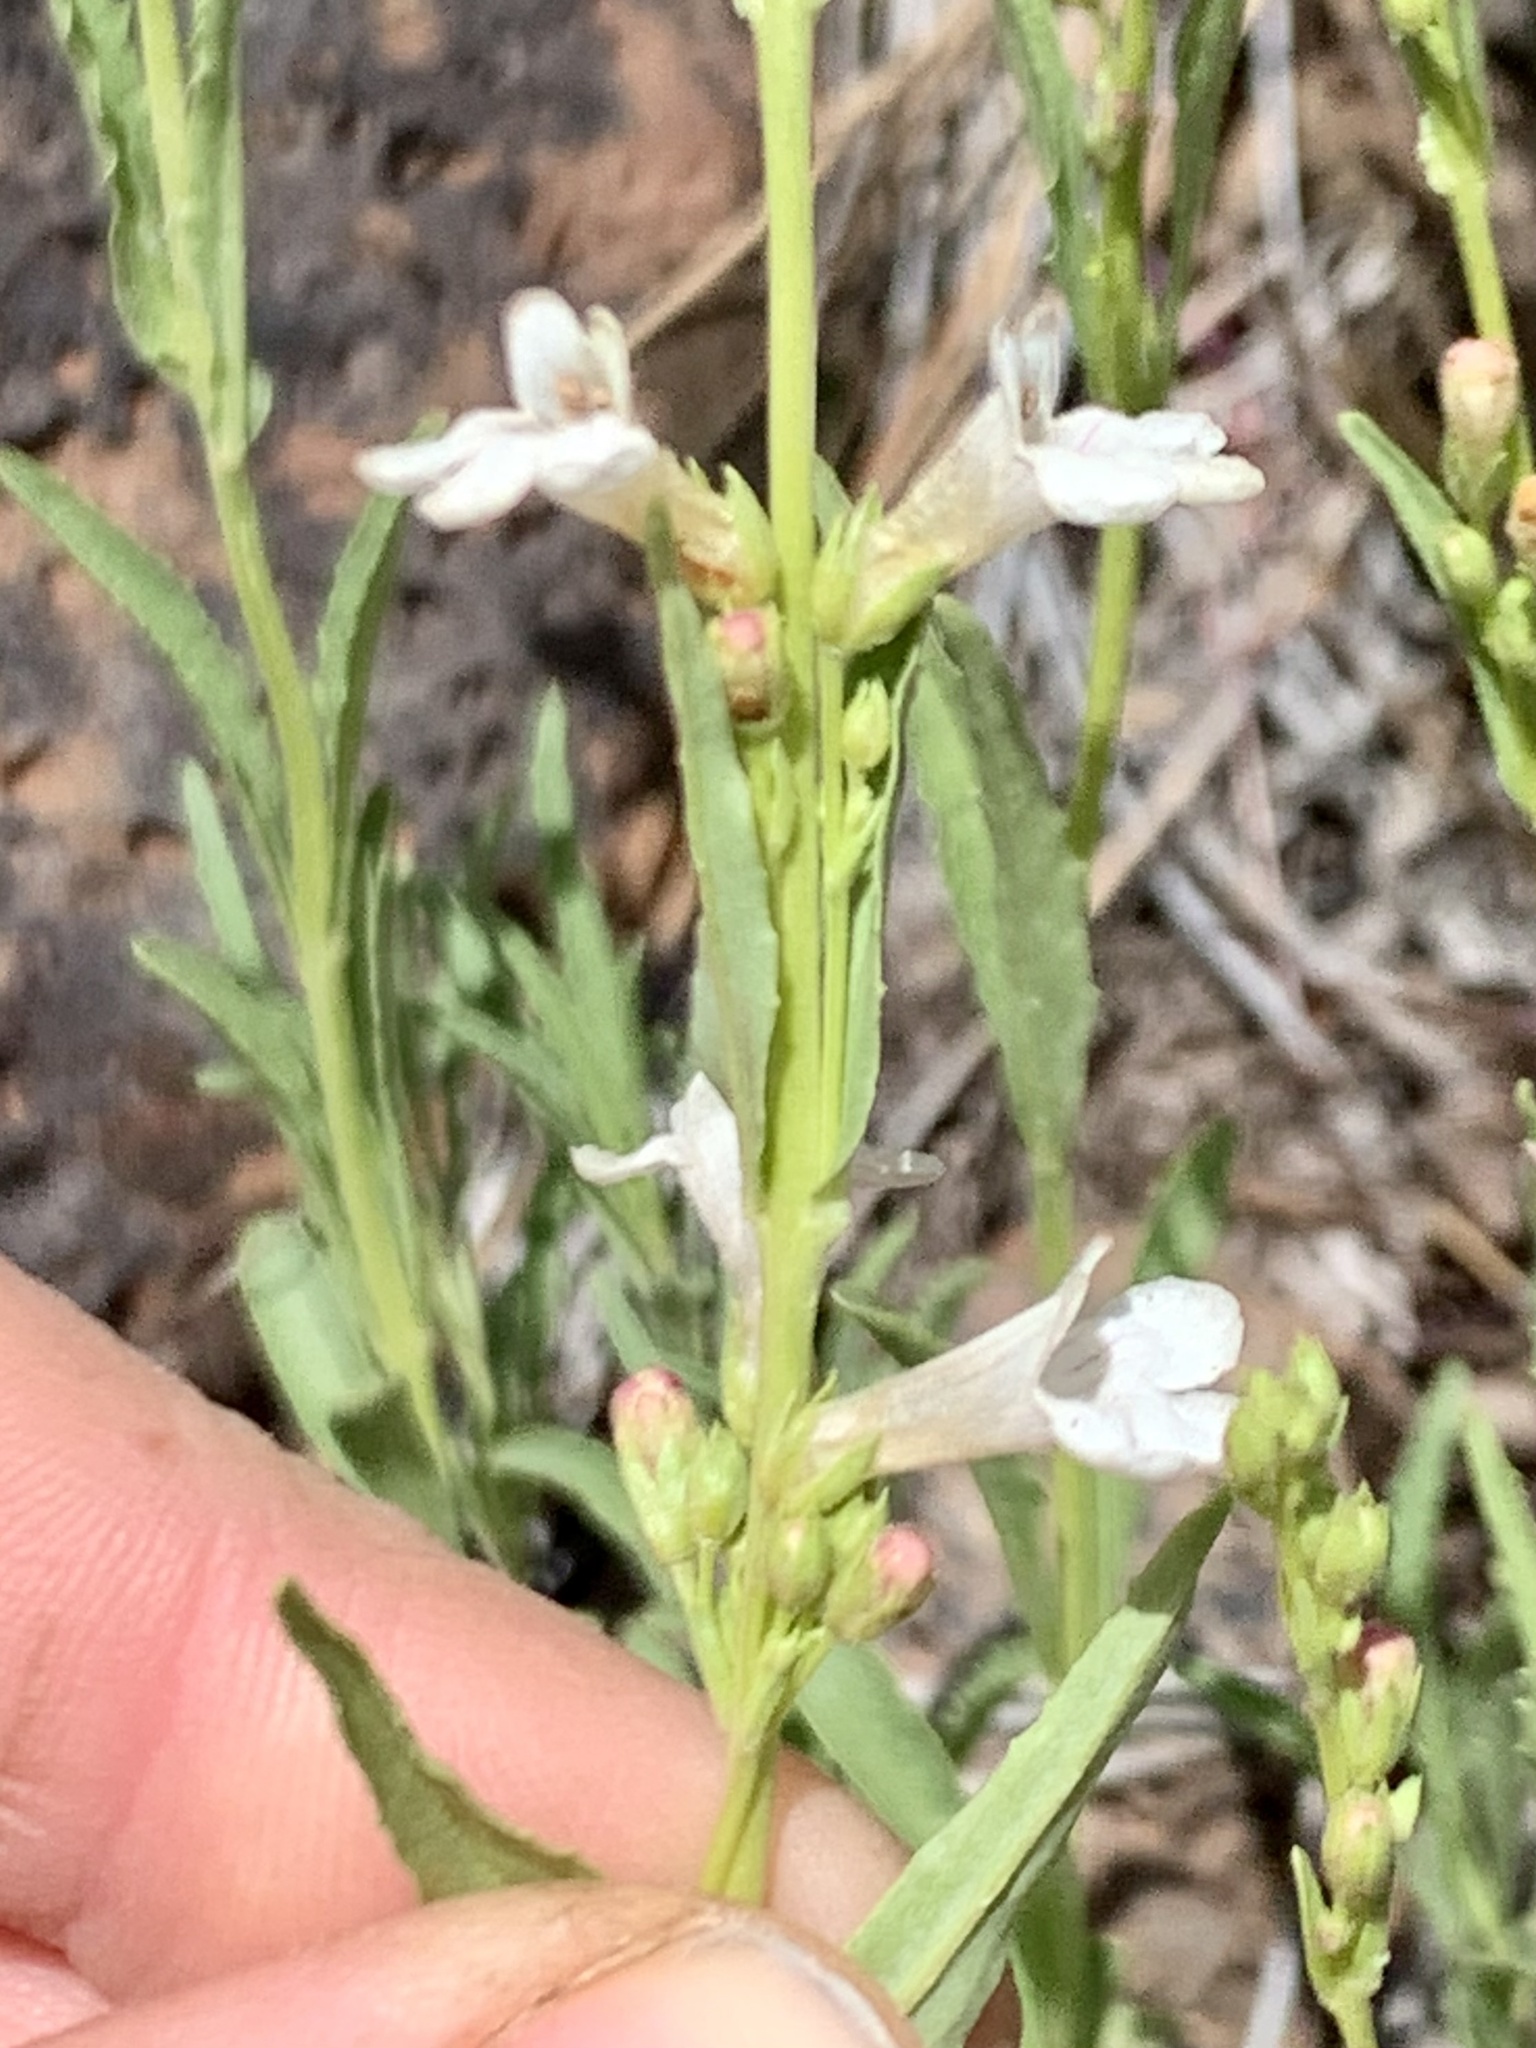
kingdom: Plantae
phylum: Tracheophyta
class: Magnoliopsida
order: Lamiales
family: Plantaginaceae
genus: Penstemon
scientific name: Penstemon deustus
